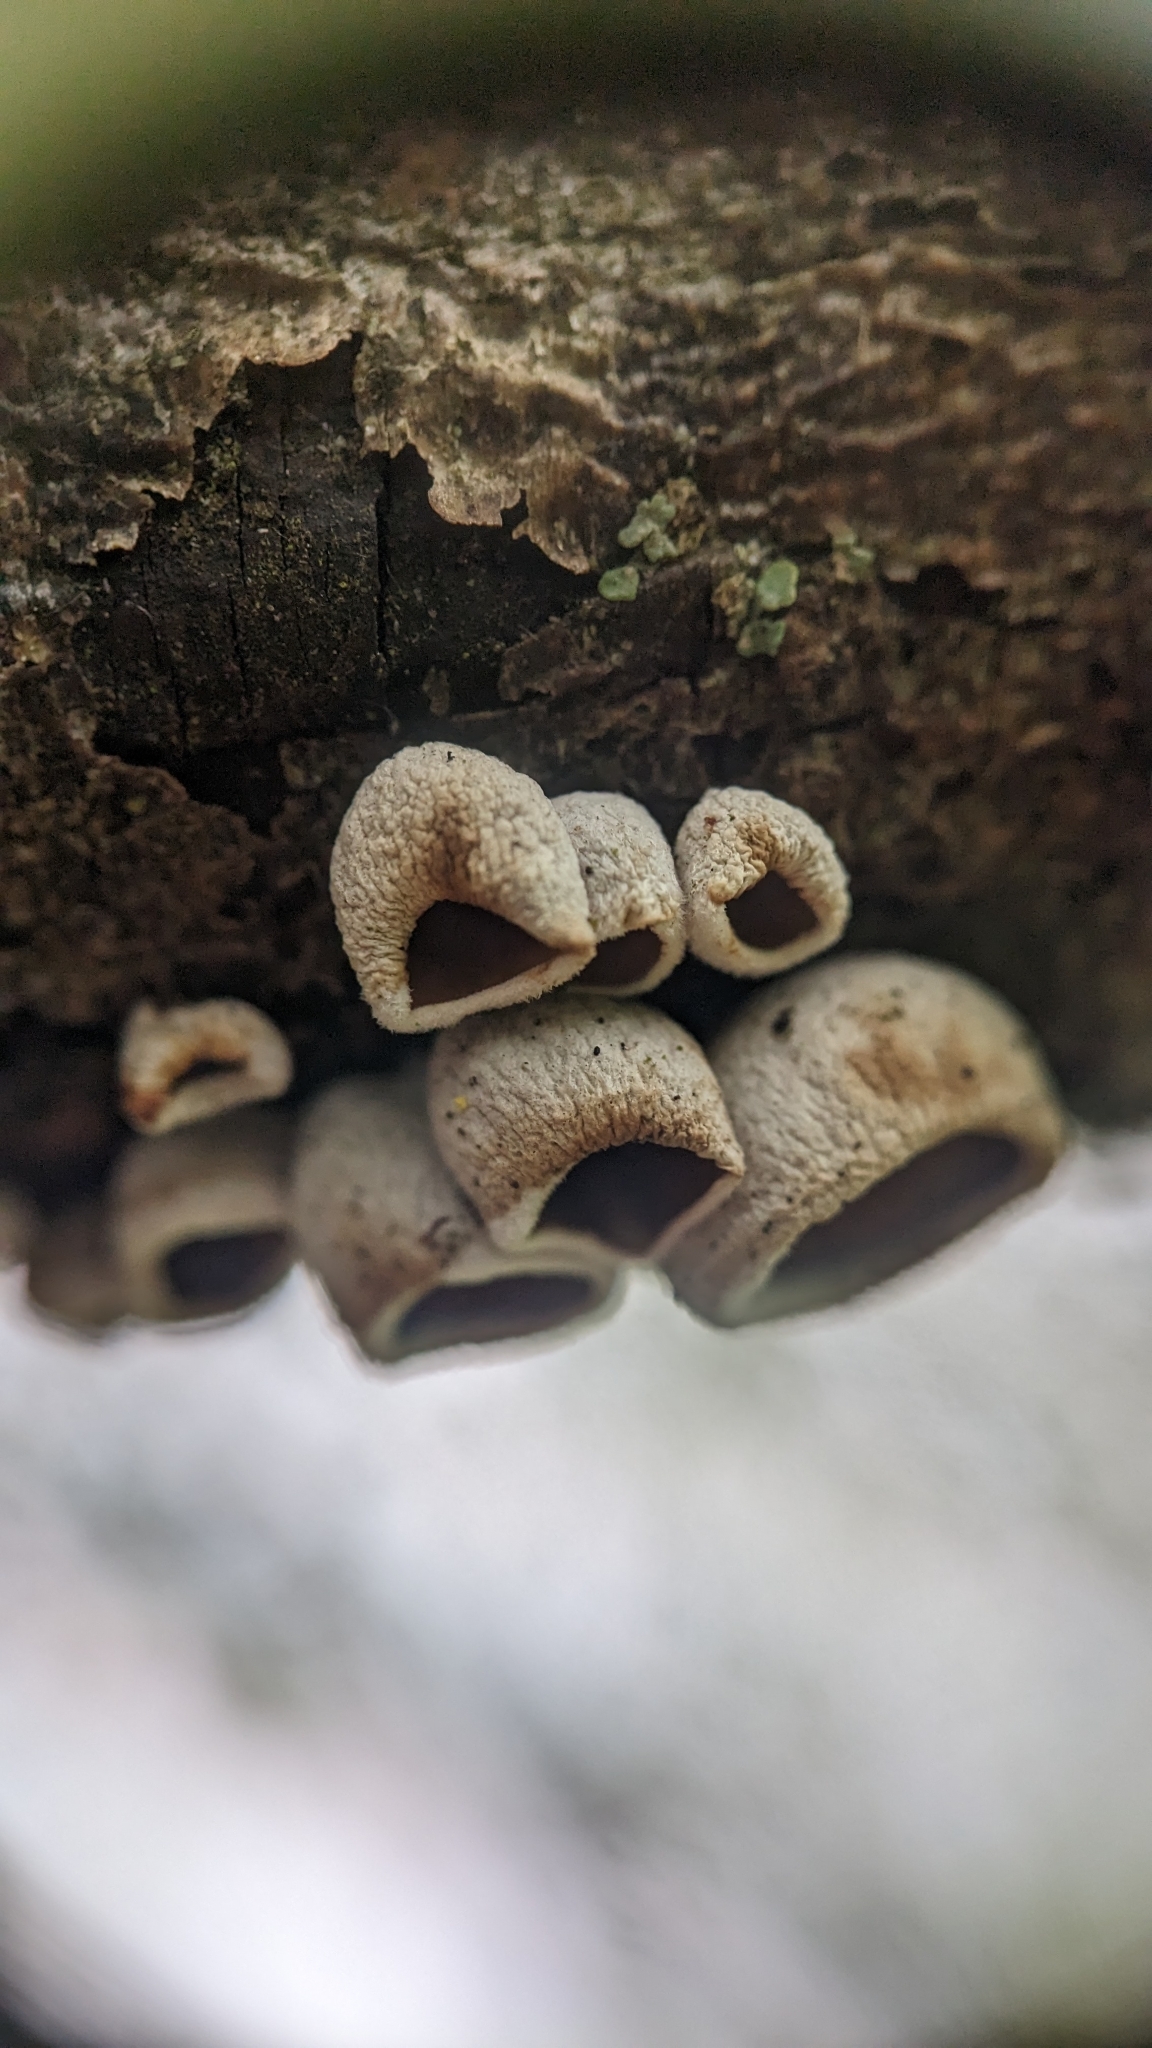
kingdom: Fungi
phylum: Basidiomycota
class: Agaricomycetes
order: Agaricales
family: Schizophyllaceae
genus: Schizophyllum
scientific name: Schizophyllum amplum
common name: Poplar bells
